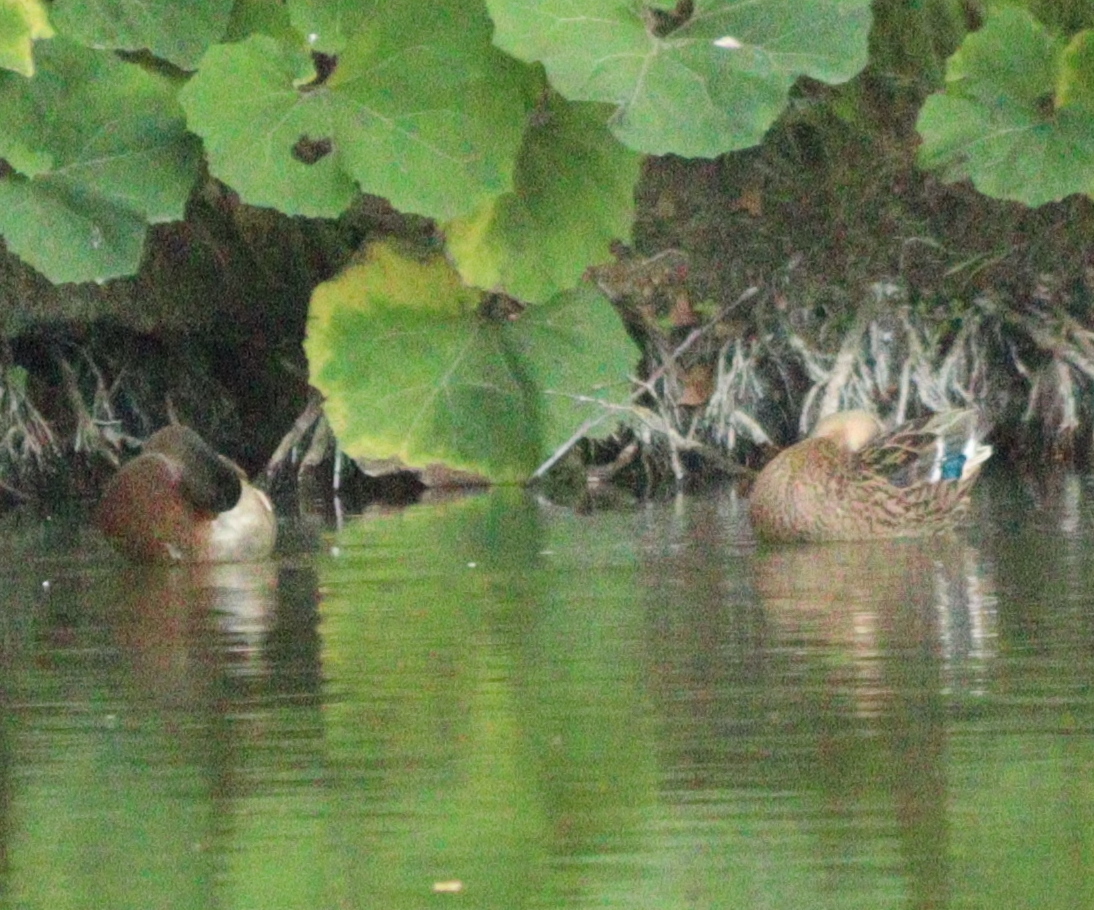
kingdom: Animalia
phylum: Chordata
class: Aves
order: Anseriformes
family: Anatidae
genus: Anas
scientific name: Anas platyrhynchos
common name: Mallard
